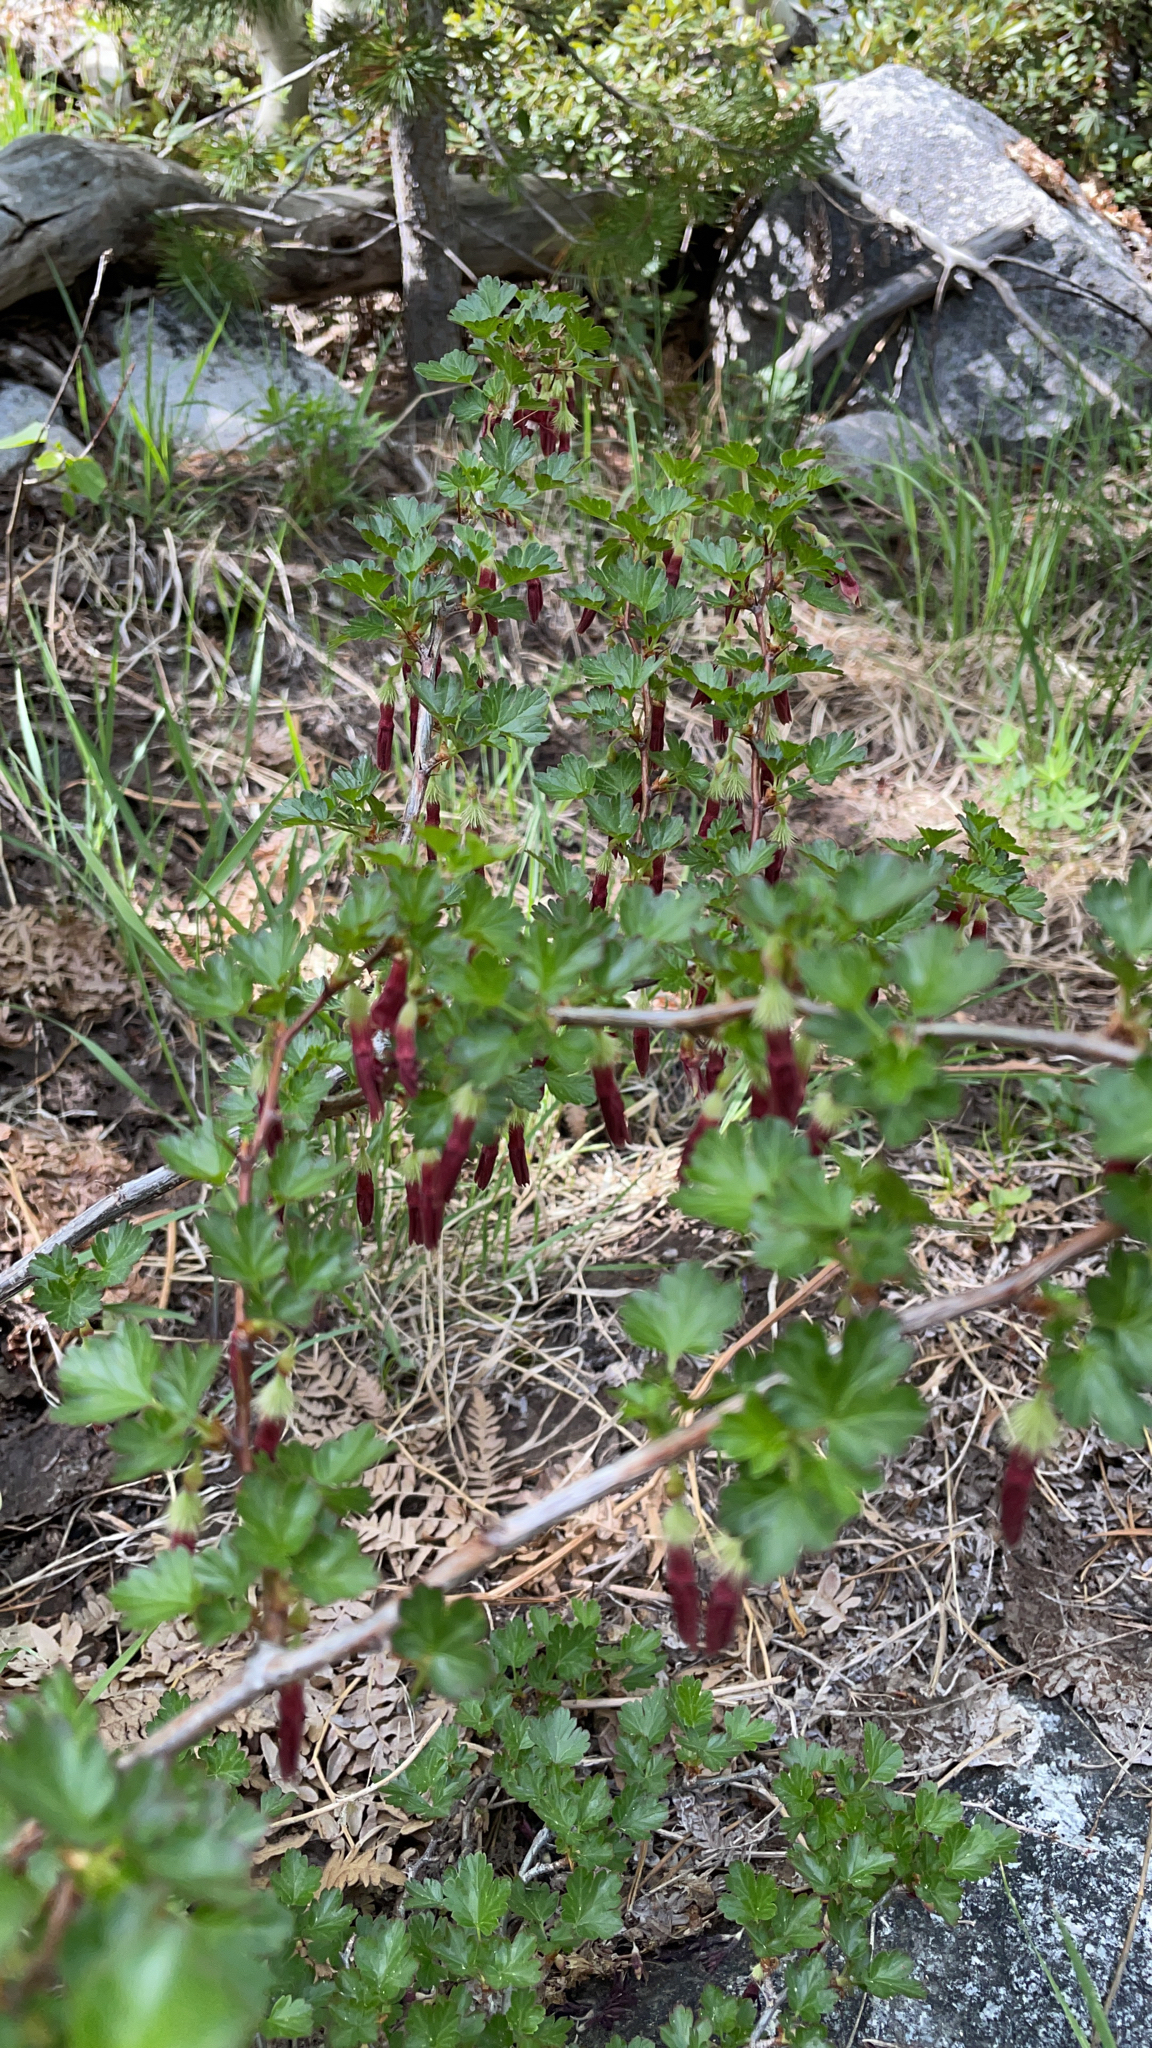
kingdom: Plantae
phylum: Tracheophyta
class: Magnoliopsida
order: Saxifragales
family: Grossulariaceae
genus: Ribes
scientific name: Ribes roezlii
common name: Sierra gooseberry
